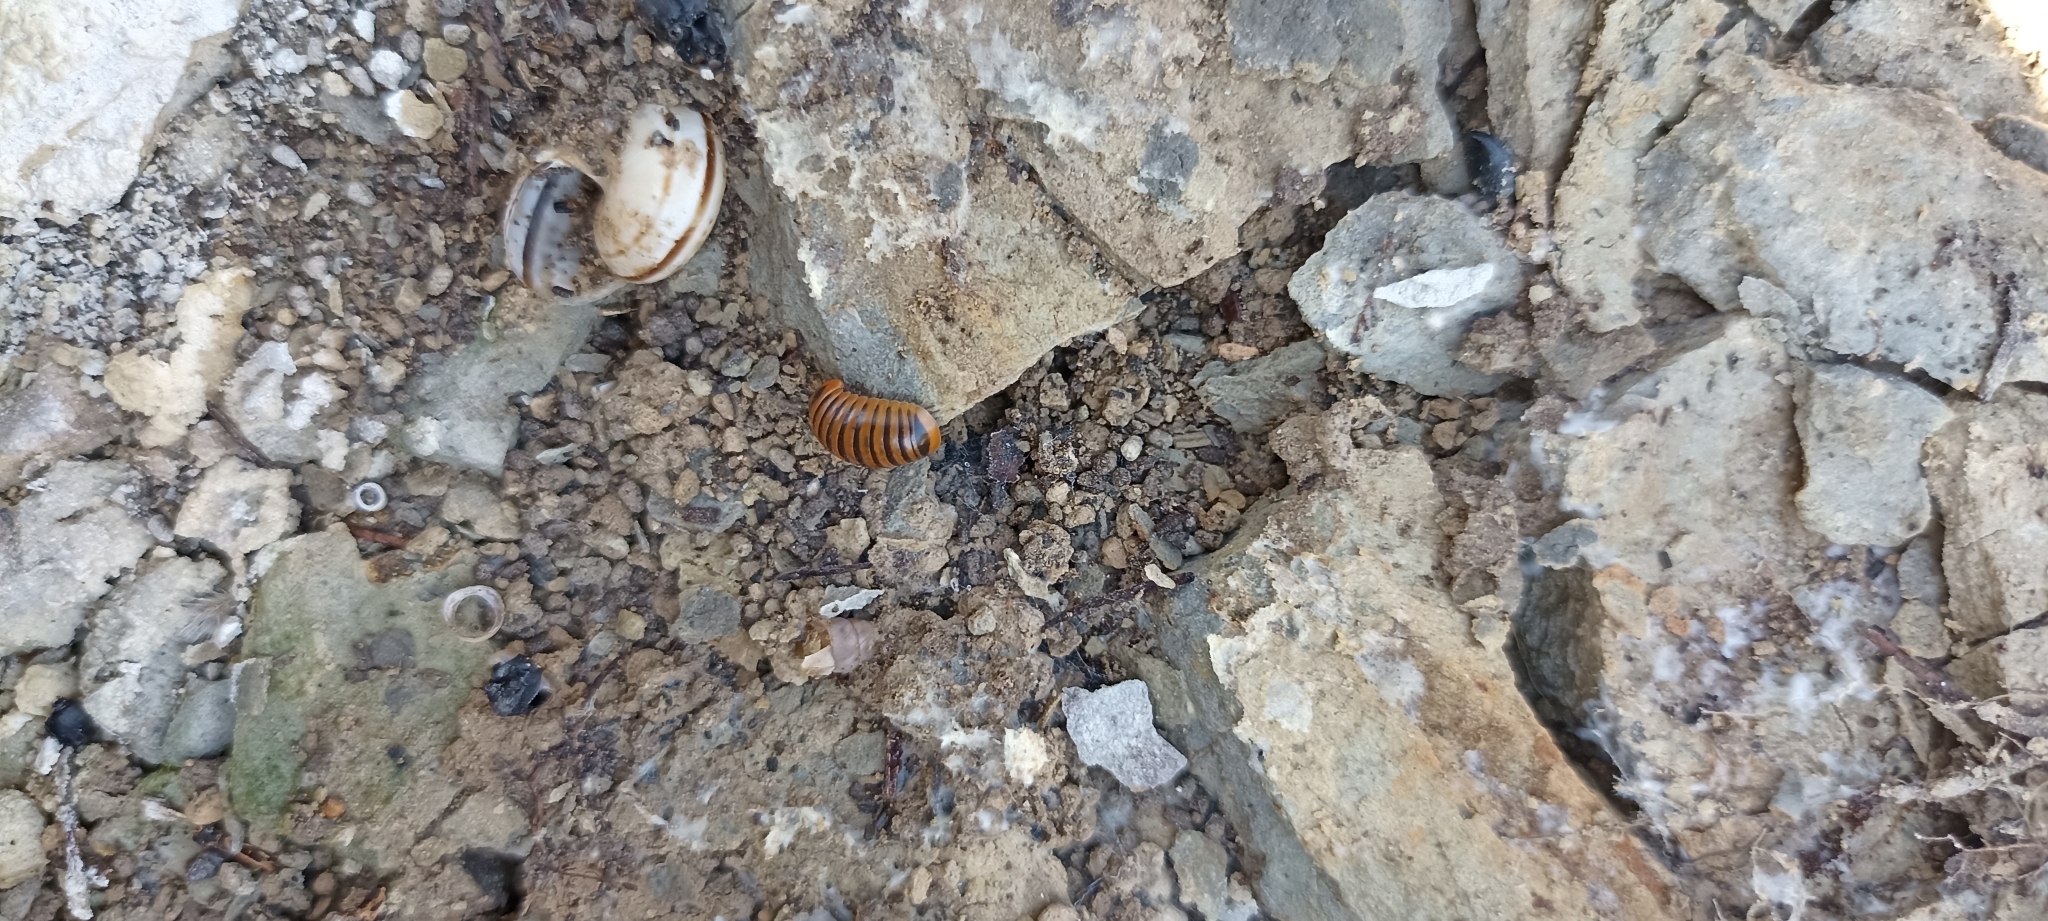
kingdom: Animalia
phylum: Arthropoda
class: Diplopoda
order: Glomerida
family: Glomeridae
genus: Glomeris
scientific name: Glomeris annulata
